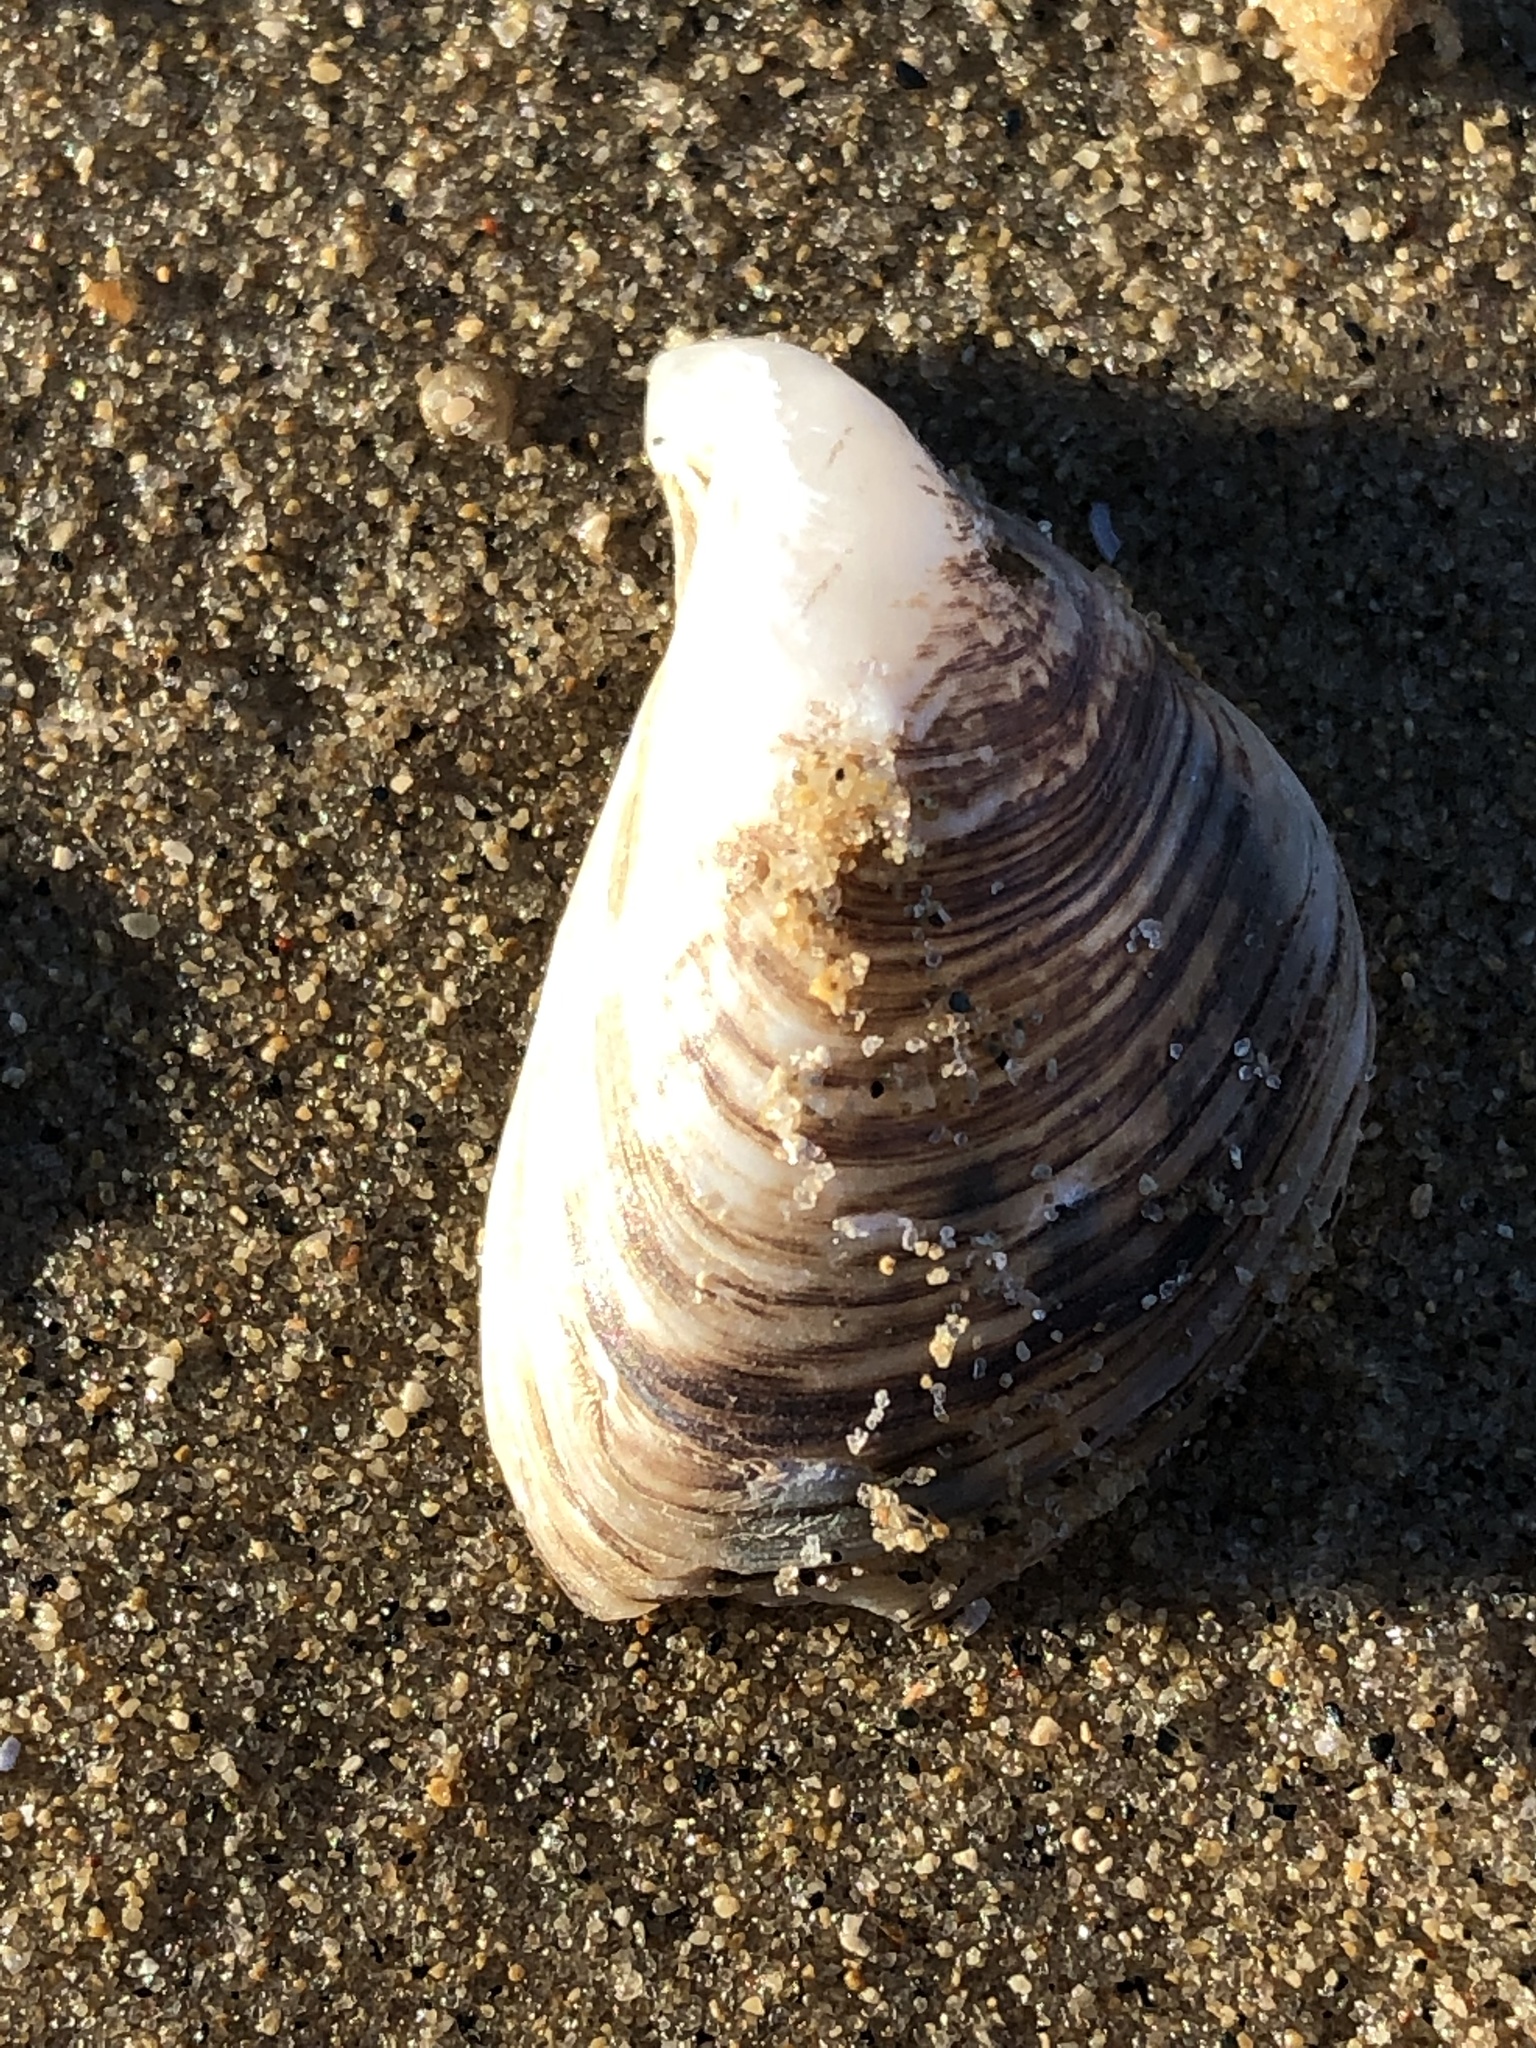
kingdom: Animalia
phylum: Mollusca
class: Bivalvia
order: Myida
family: Dreissenidae
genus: Dreissena
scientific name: Dreissena bugensis
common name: Quagga mussel
